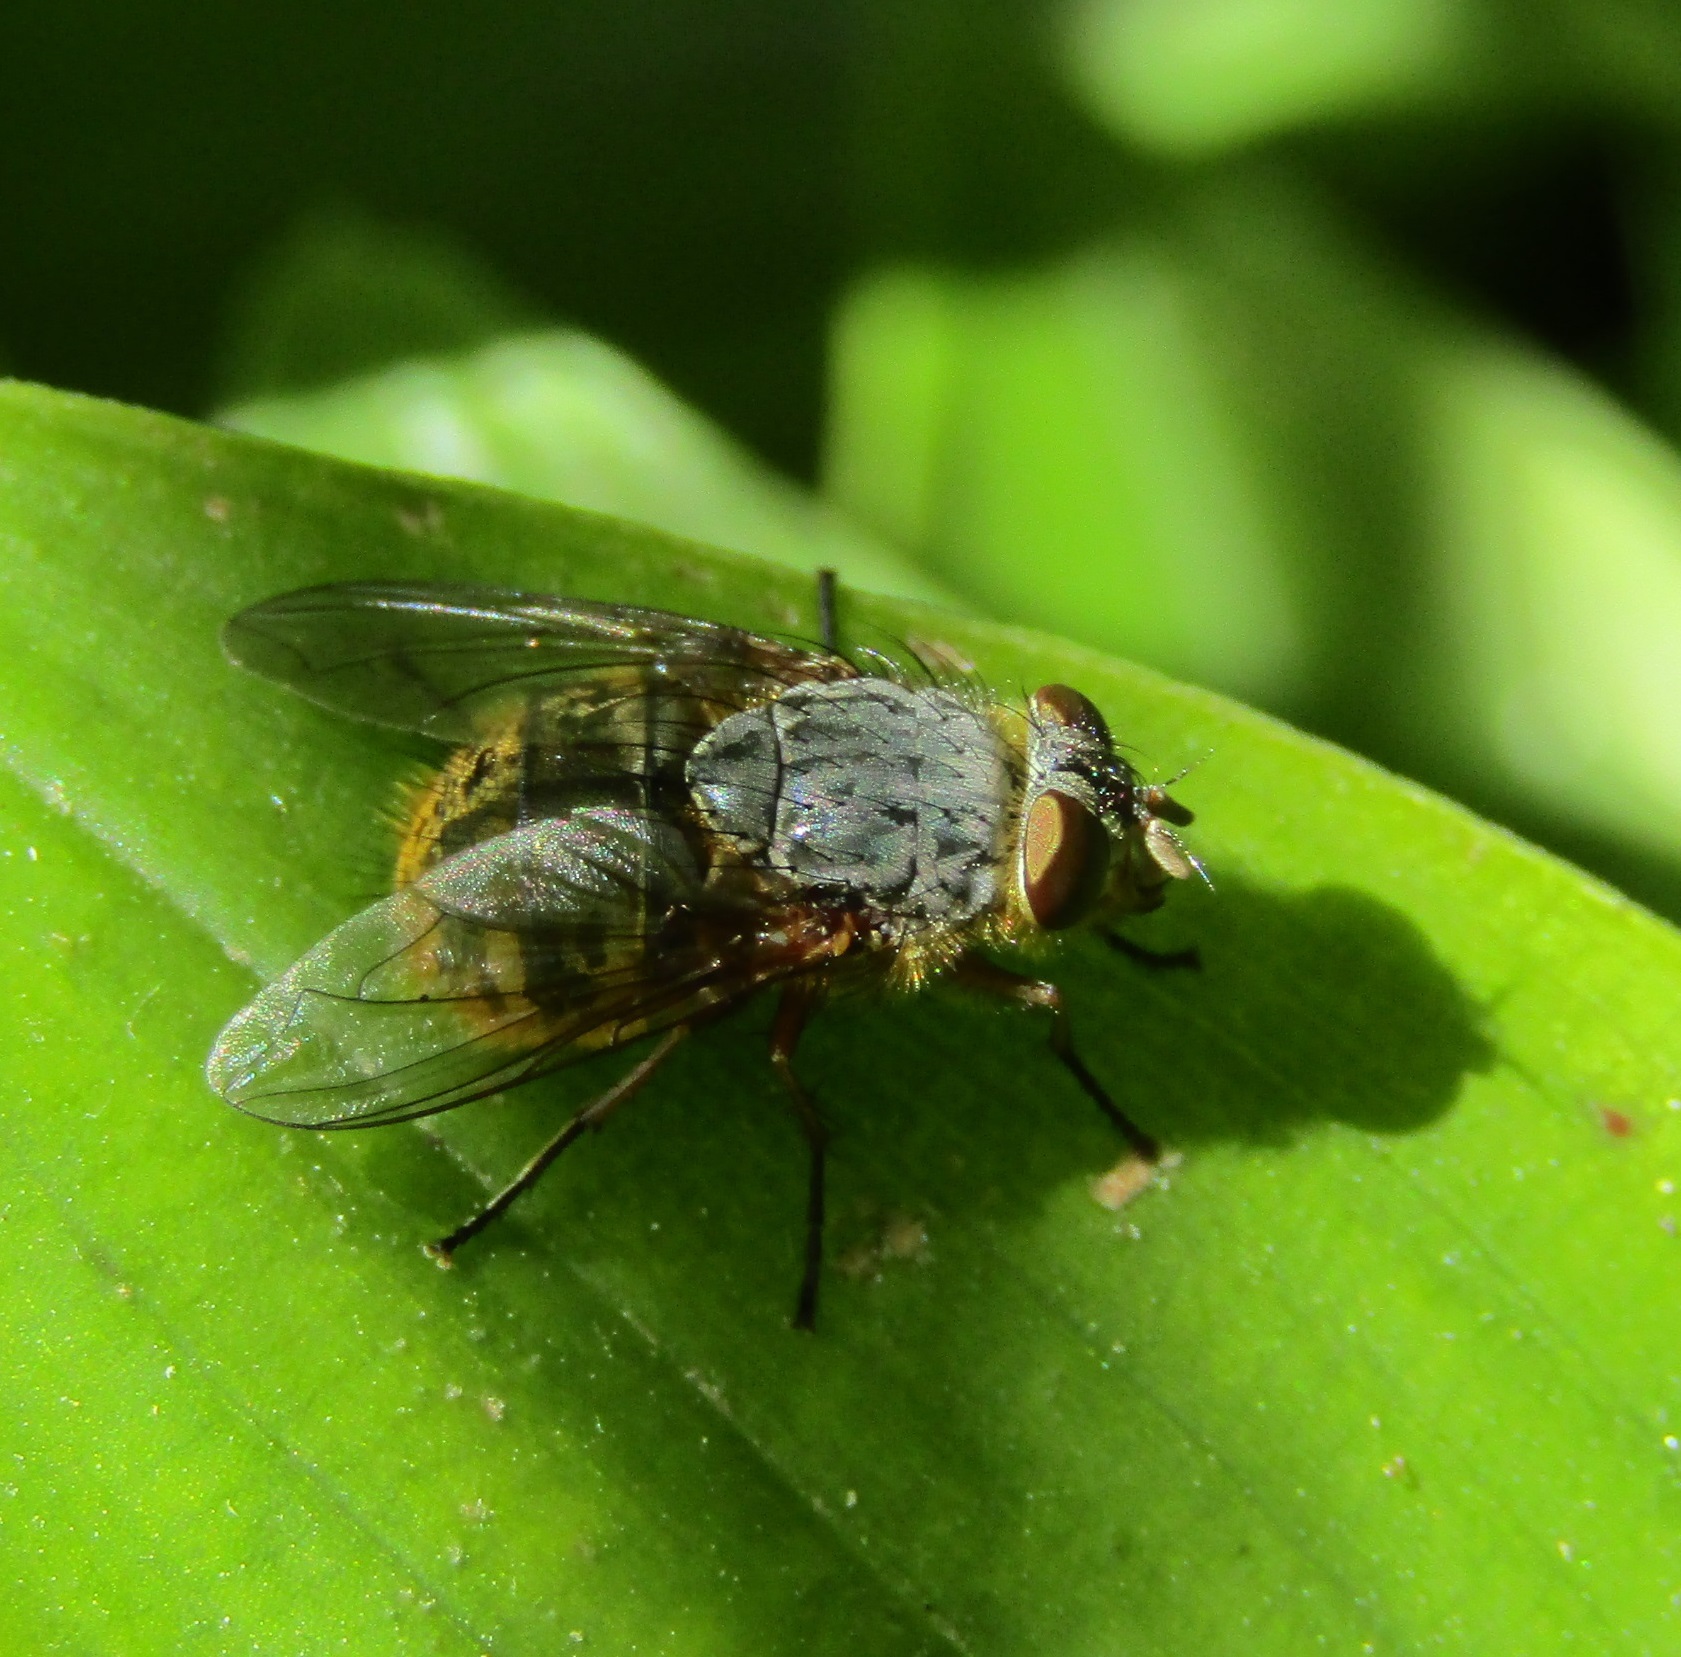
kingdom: Animalia
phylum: Arthropoda
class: Insecta
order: Diptera
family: Calliphoridae
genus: Calliphora
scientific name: Calliphora hilli
